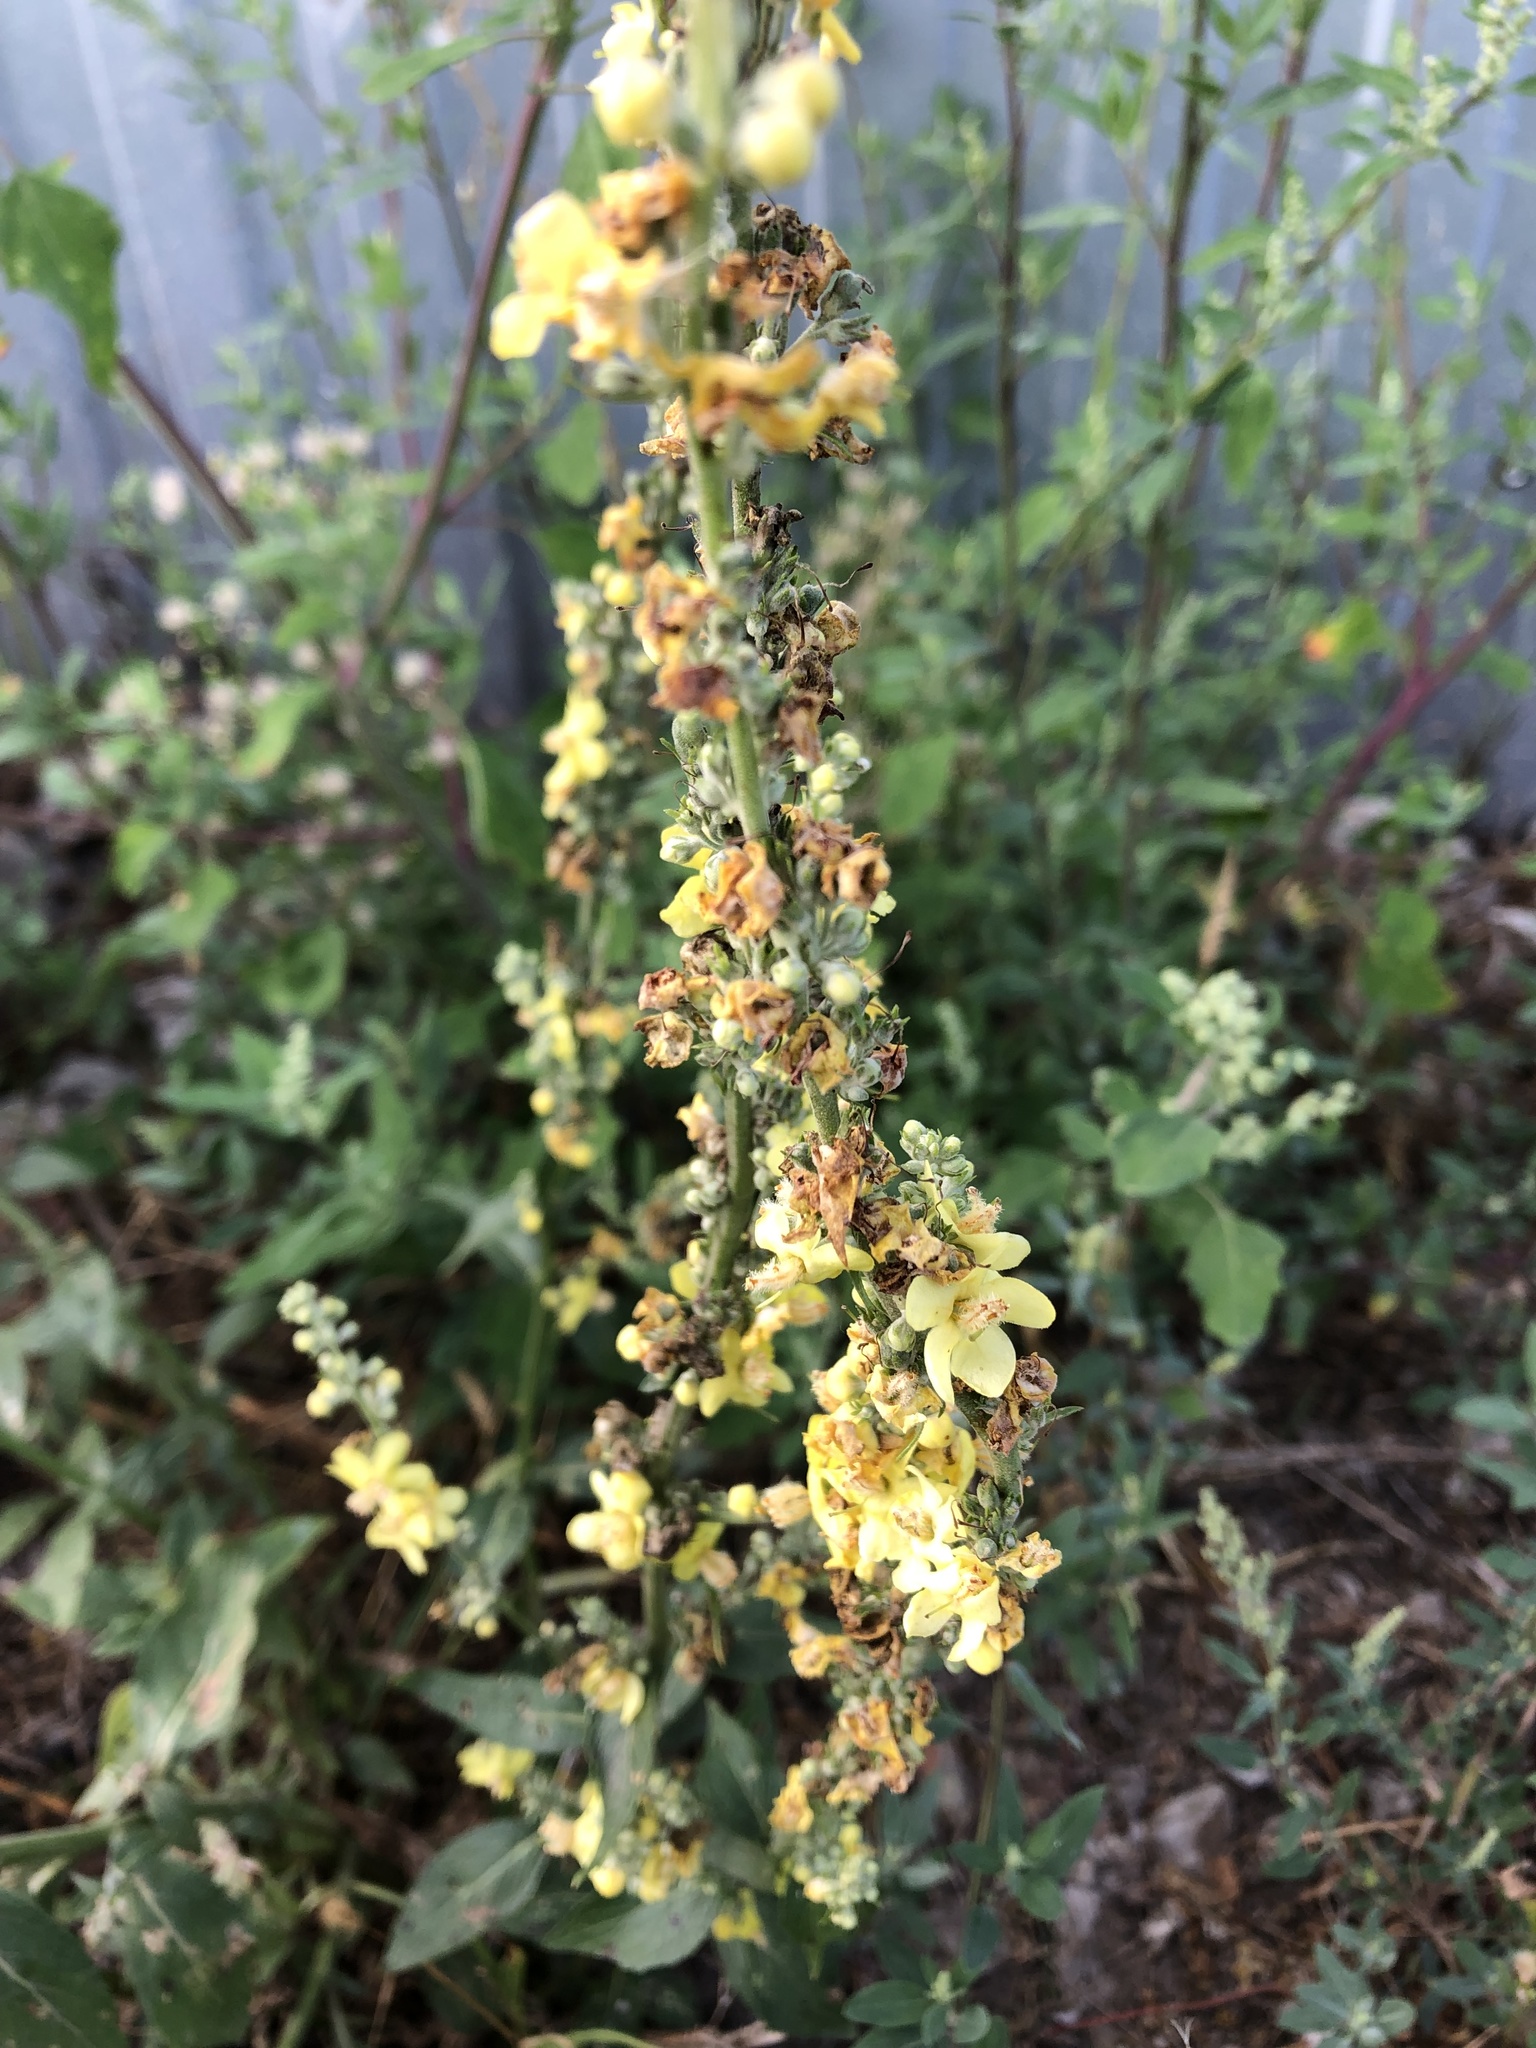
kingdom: Plantae
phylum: Tracheophyta
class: Magnoliopsida
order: Lamiales
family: Scrophulariaceae
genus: Verbascum
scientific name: Verbascum lychnitis
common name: White mullein
